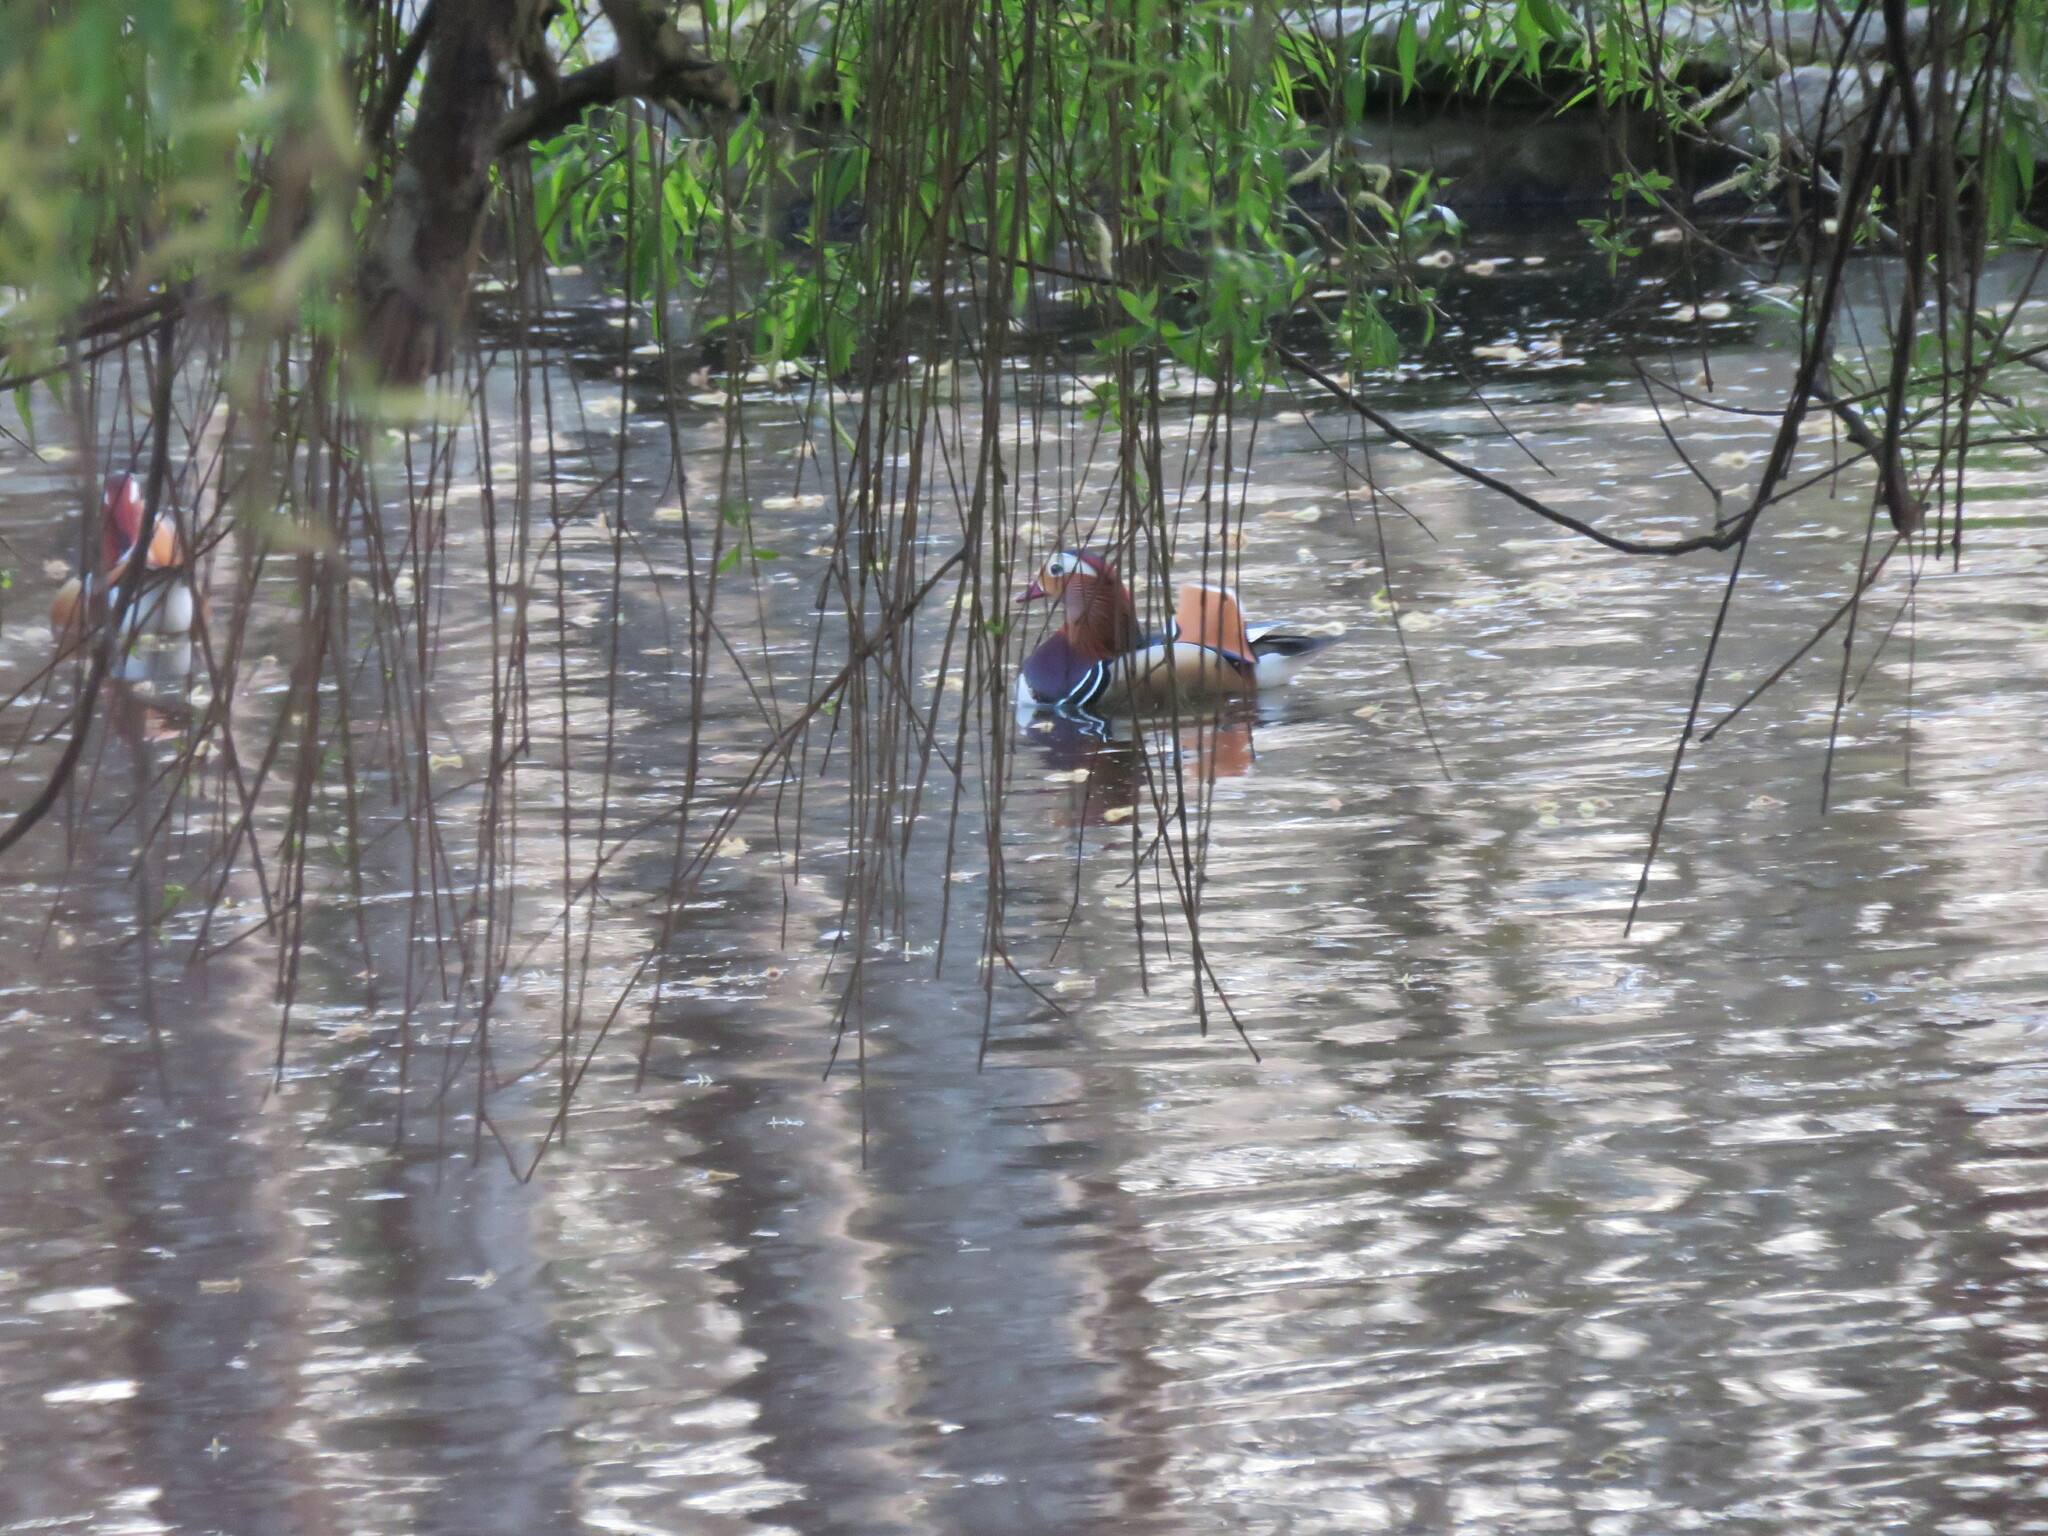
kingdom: Animalia
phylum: Chordata
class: Aves
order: Anseriformes
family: Anatidae
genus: Aix
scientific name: Aix galericulata
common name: Mandarin duck
